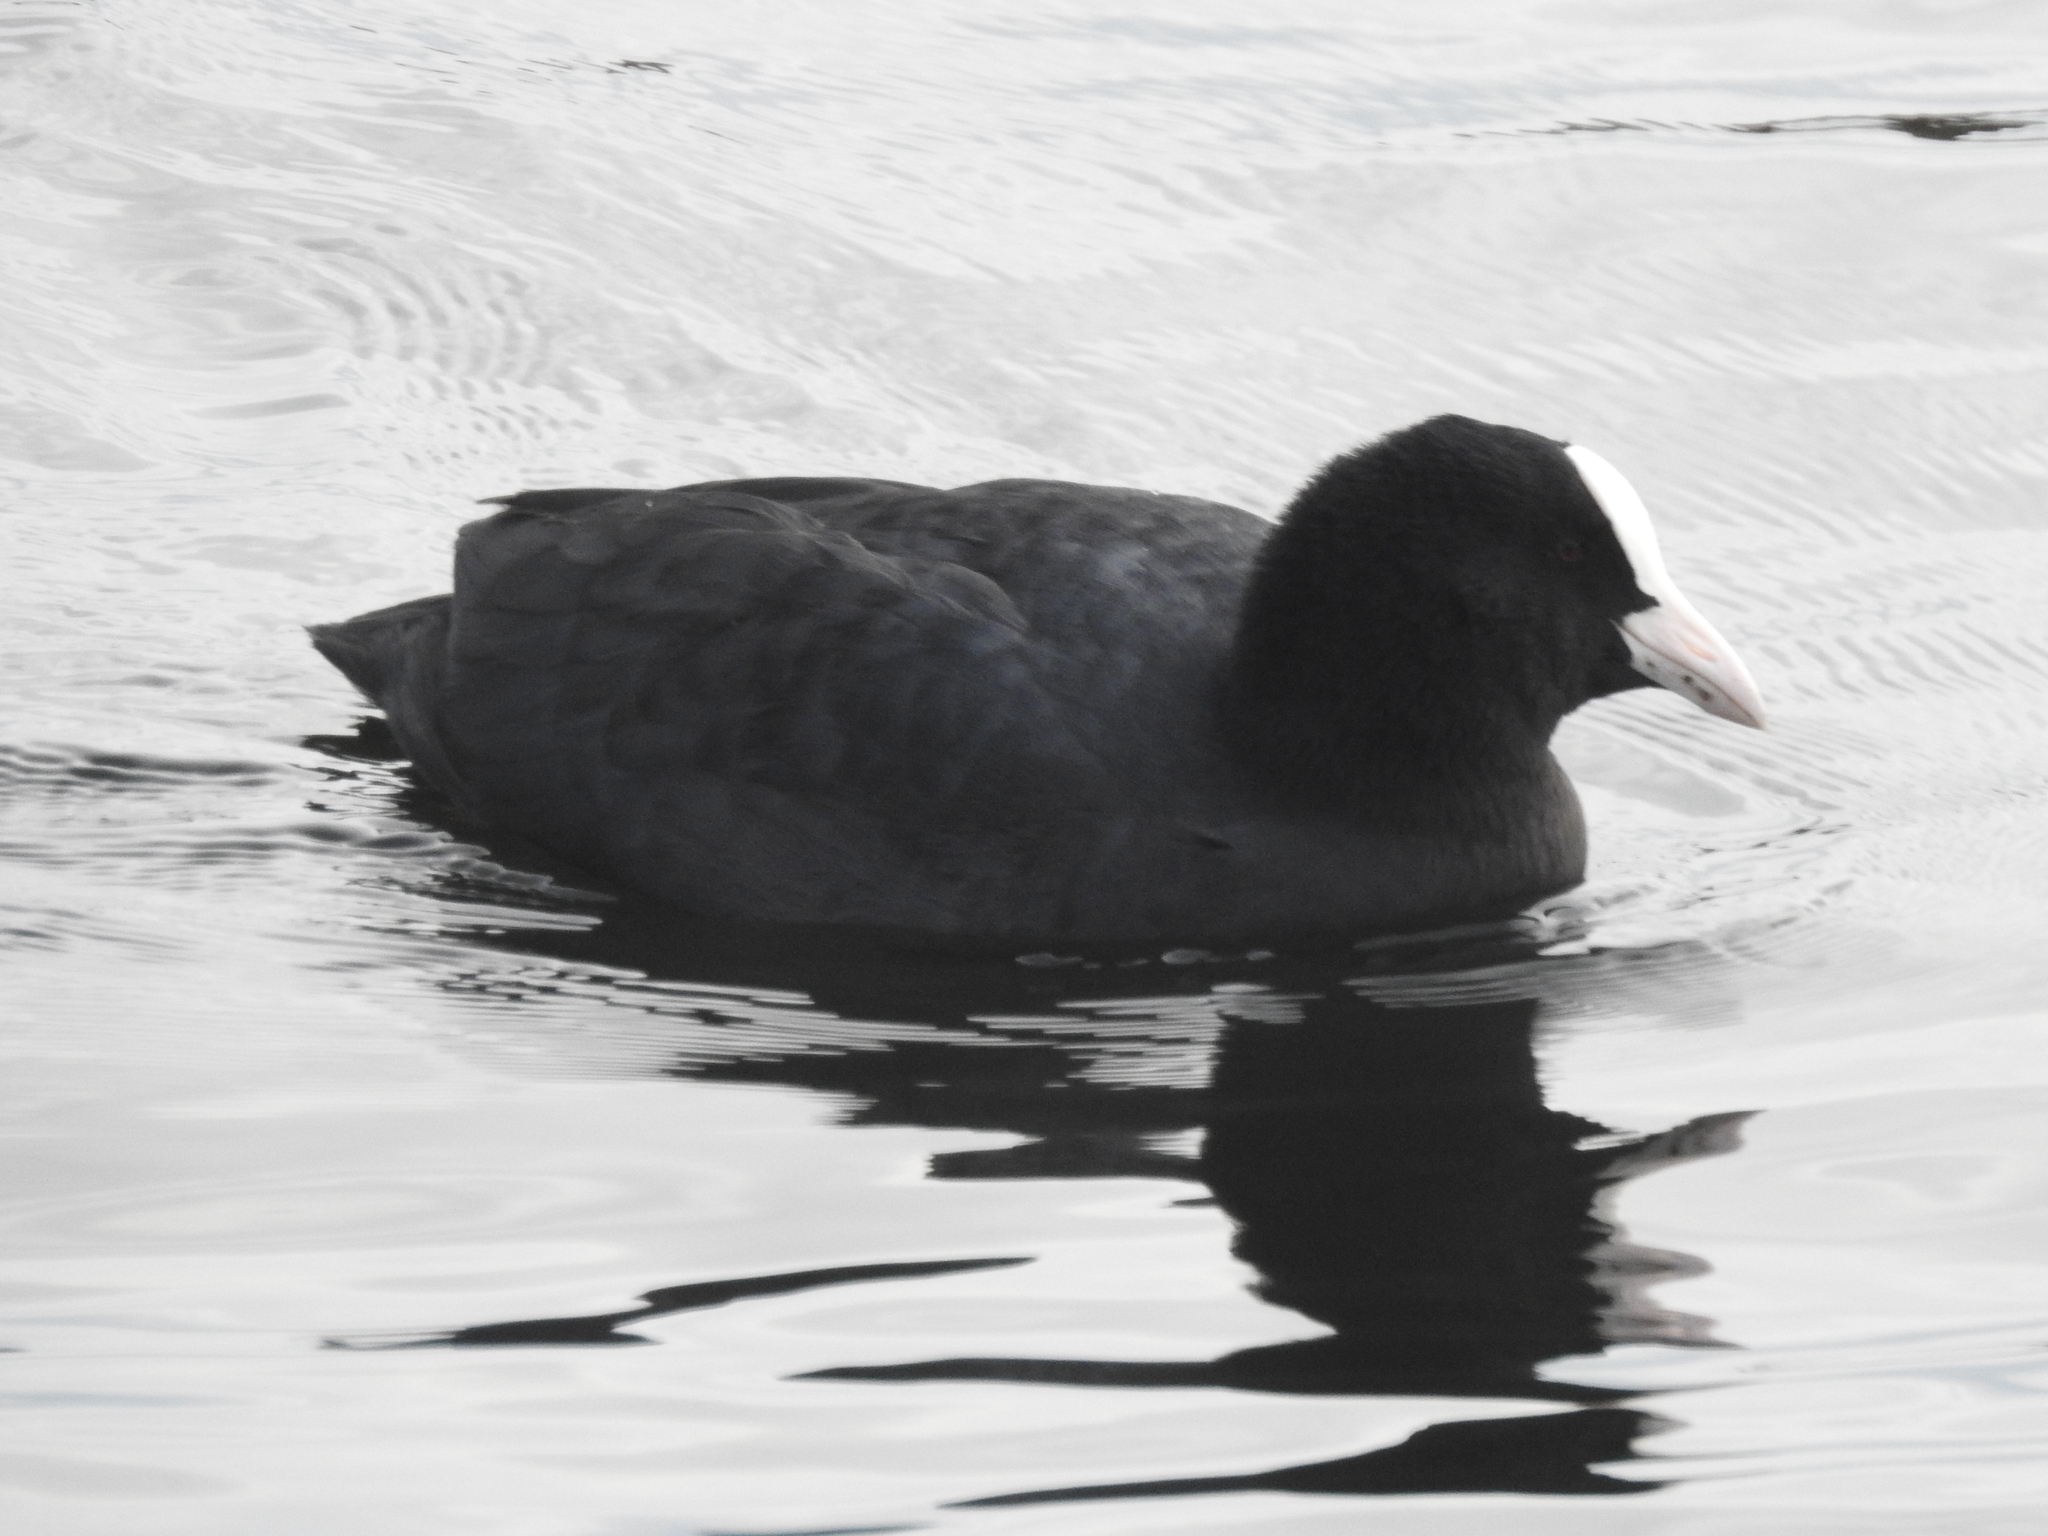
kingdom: Animalia
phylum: Chordata
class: Aves
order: Gruiformes
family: Rallidae
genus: Fulica
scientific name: Fulica atra
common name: Eurasian coot
